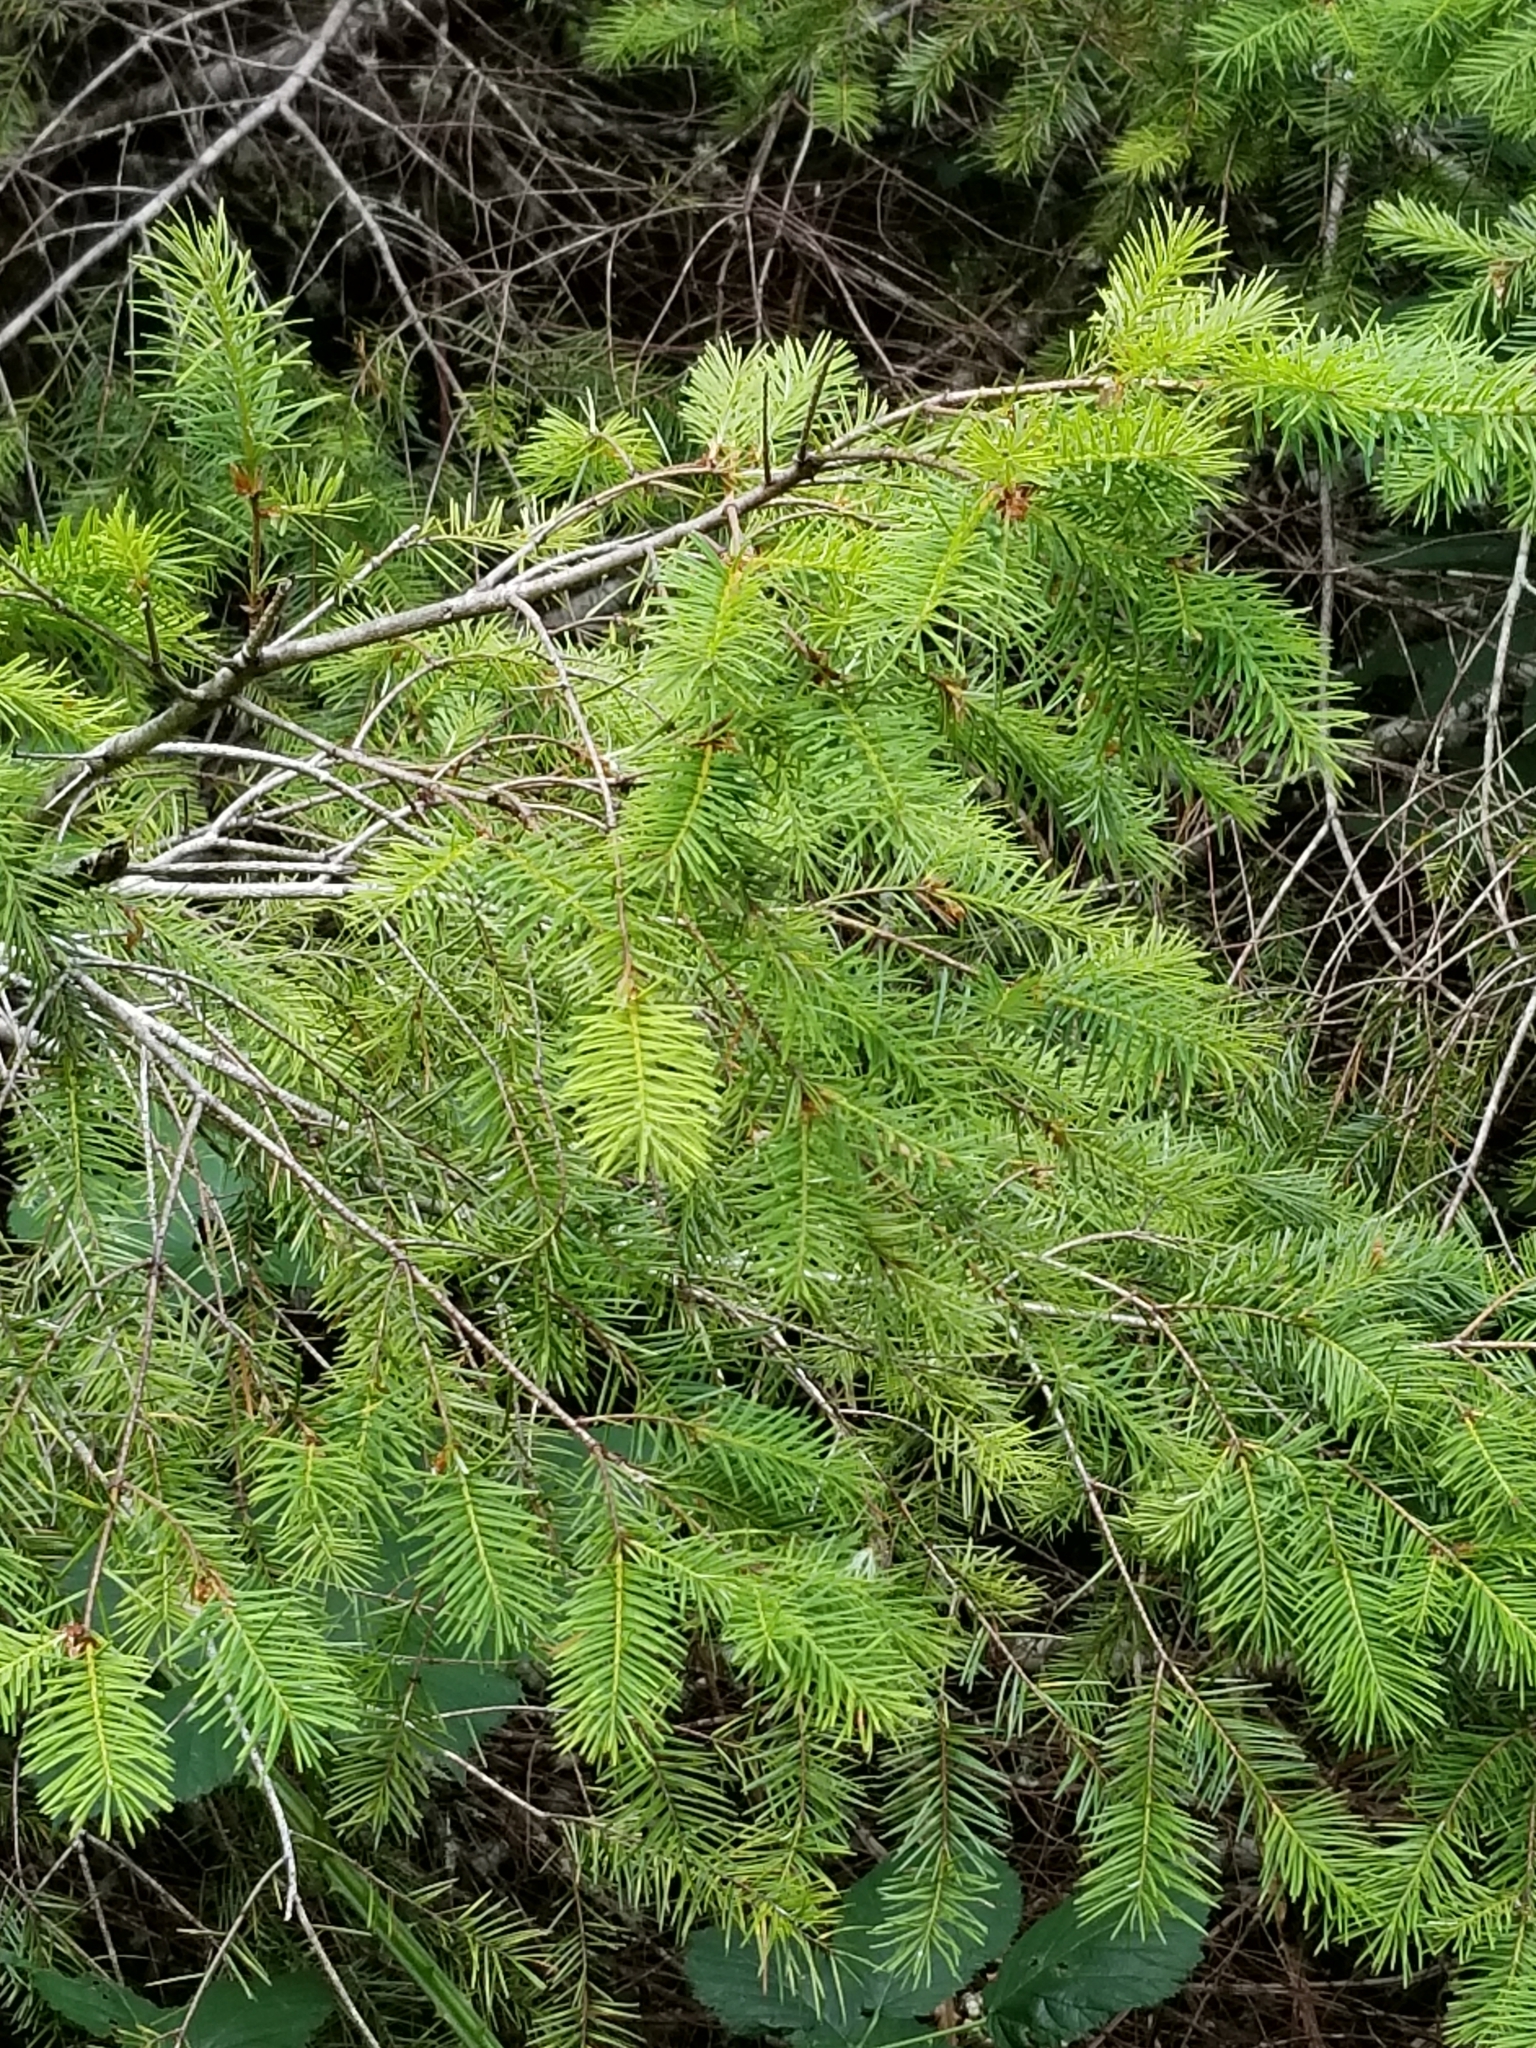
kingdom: Plantae
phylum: Tracheophyta
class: Pinopsida
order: Pinales
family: Pinaceae
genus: Pseudotsuga
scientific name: Pseudotsuga menziesii
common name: Douglas fir
